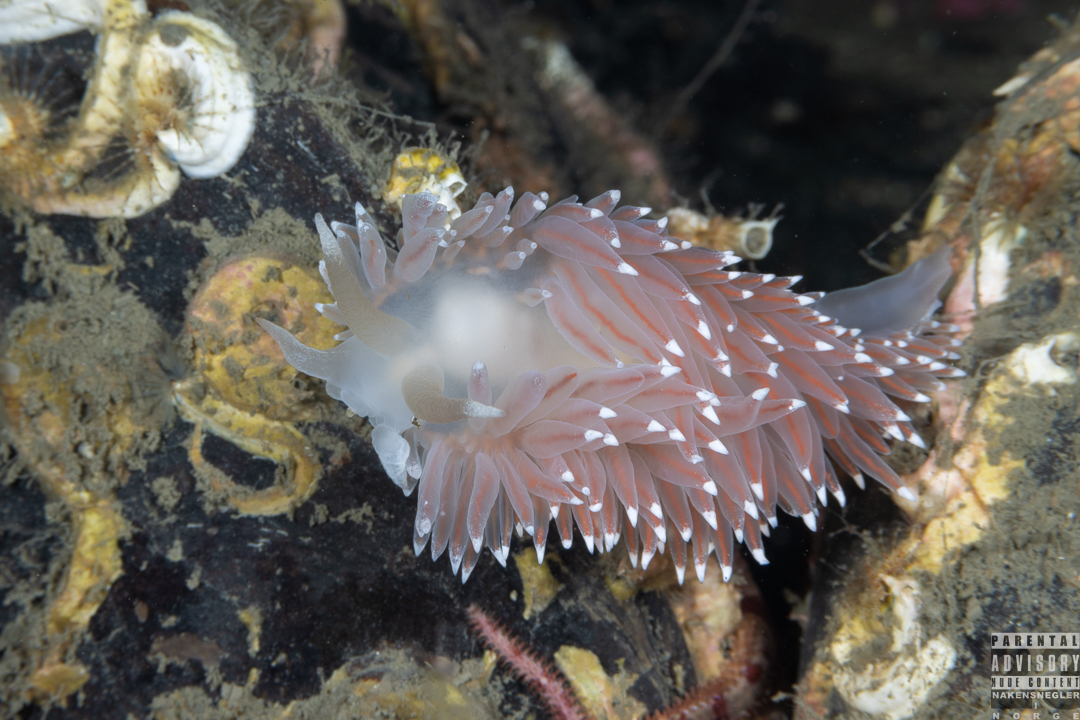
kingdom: Animalia
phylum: Mollusca
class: Gastropoda
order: Nudibranchia
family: Coryphellidae
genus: Coryphella
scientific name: Coryphella nobilis
